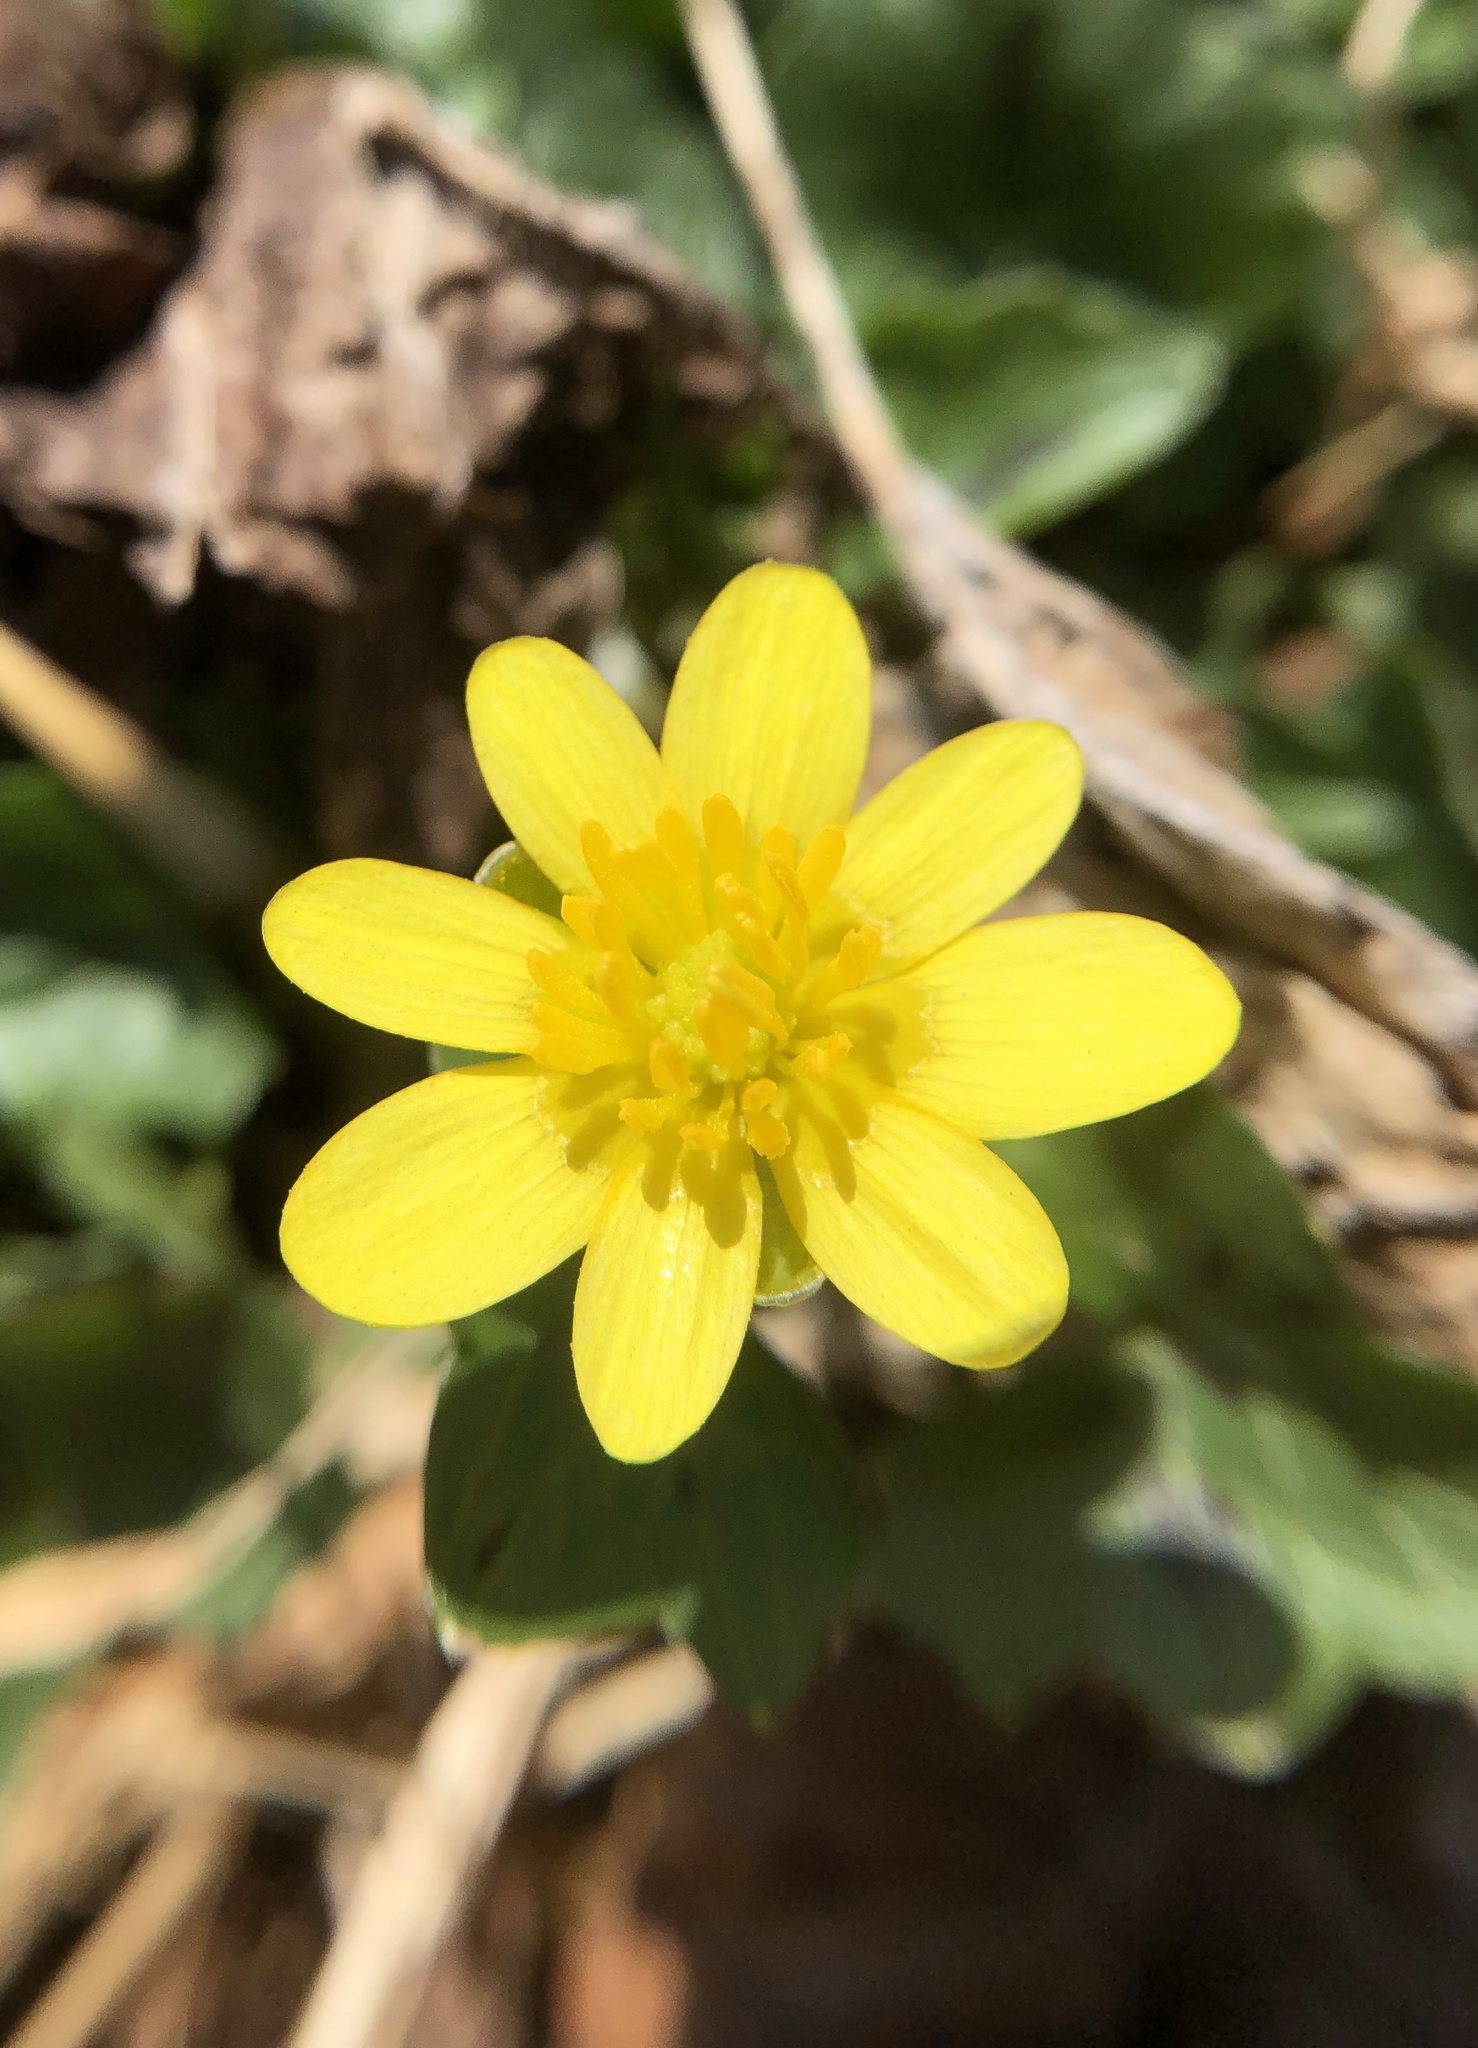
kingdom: Plantae
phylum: Tracheophyta
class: Magnoliopsida
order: Ranunculales
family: Ranunculaceae
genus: Ficaria
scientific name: Ficaria verna
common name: Lesser celandine
